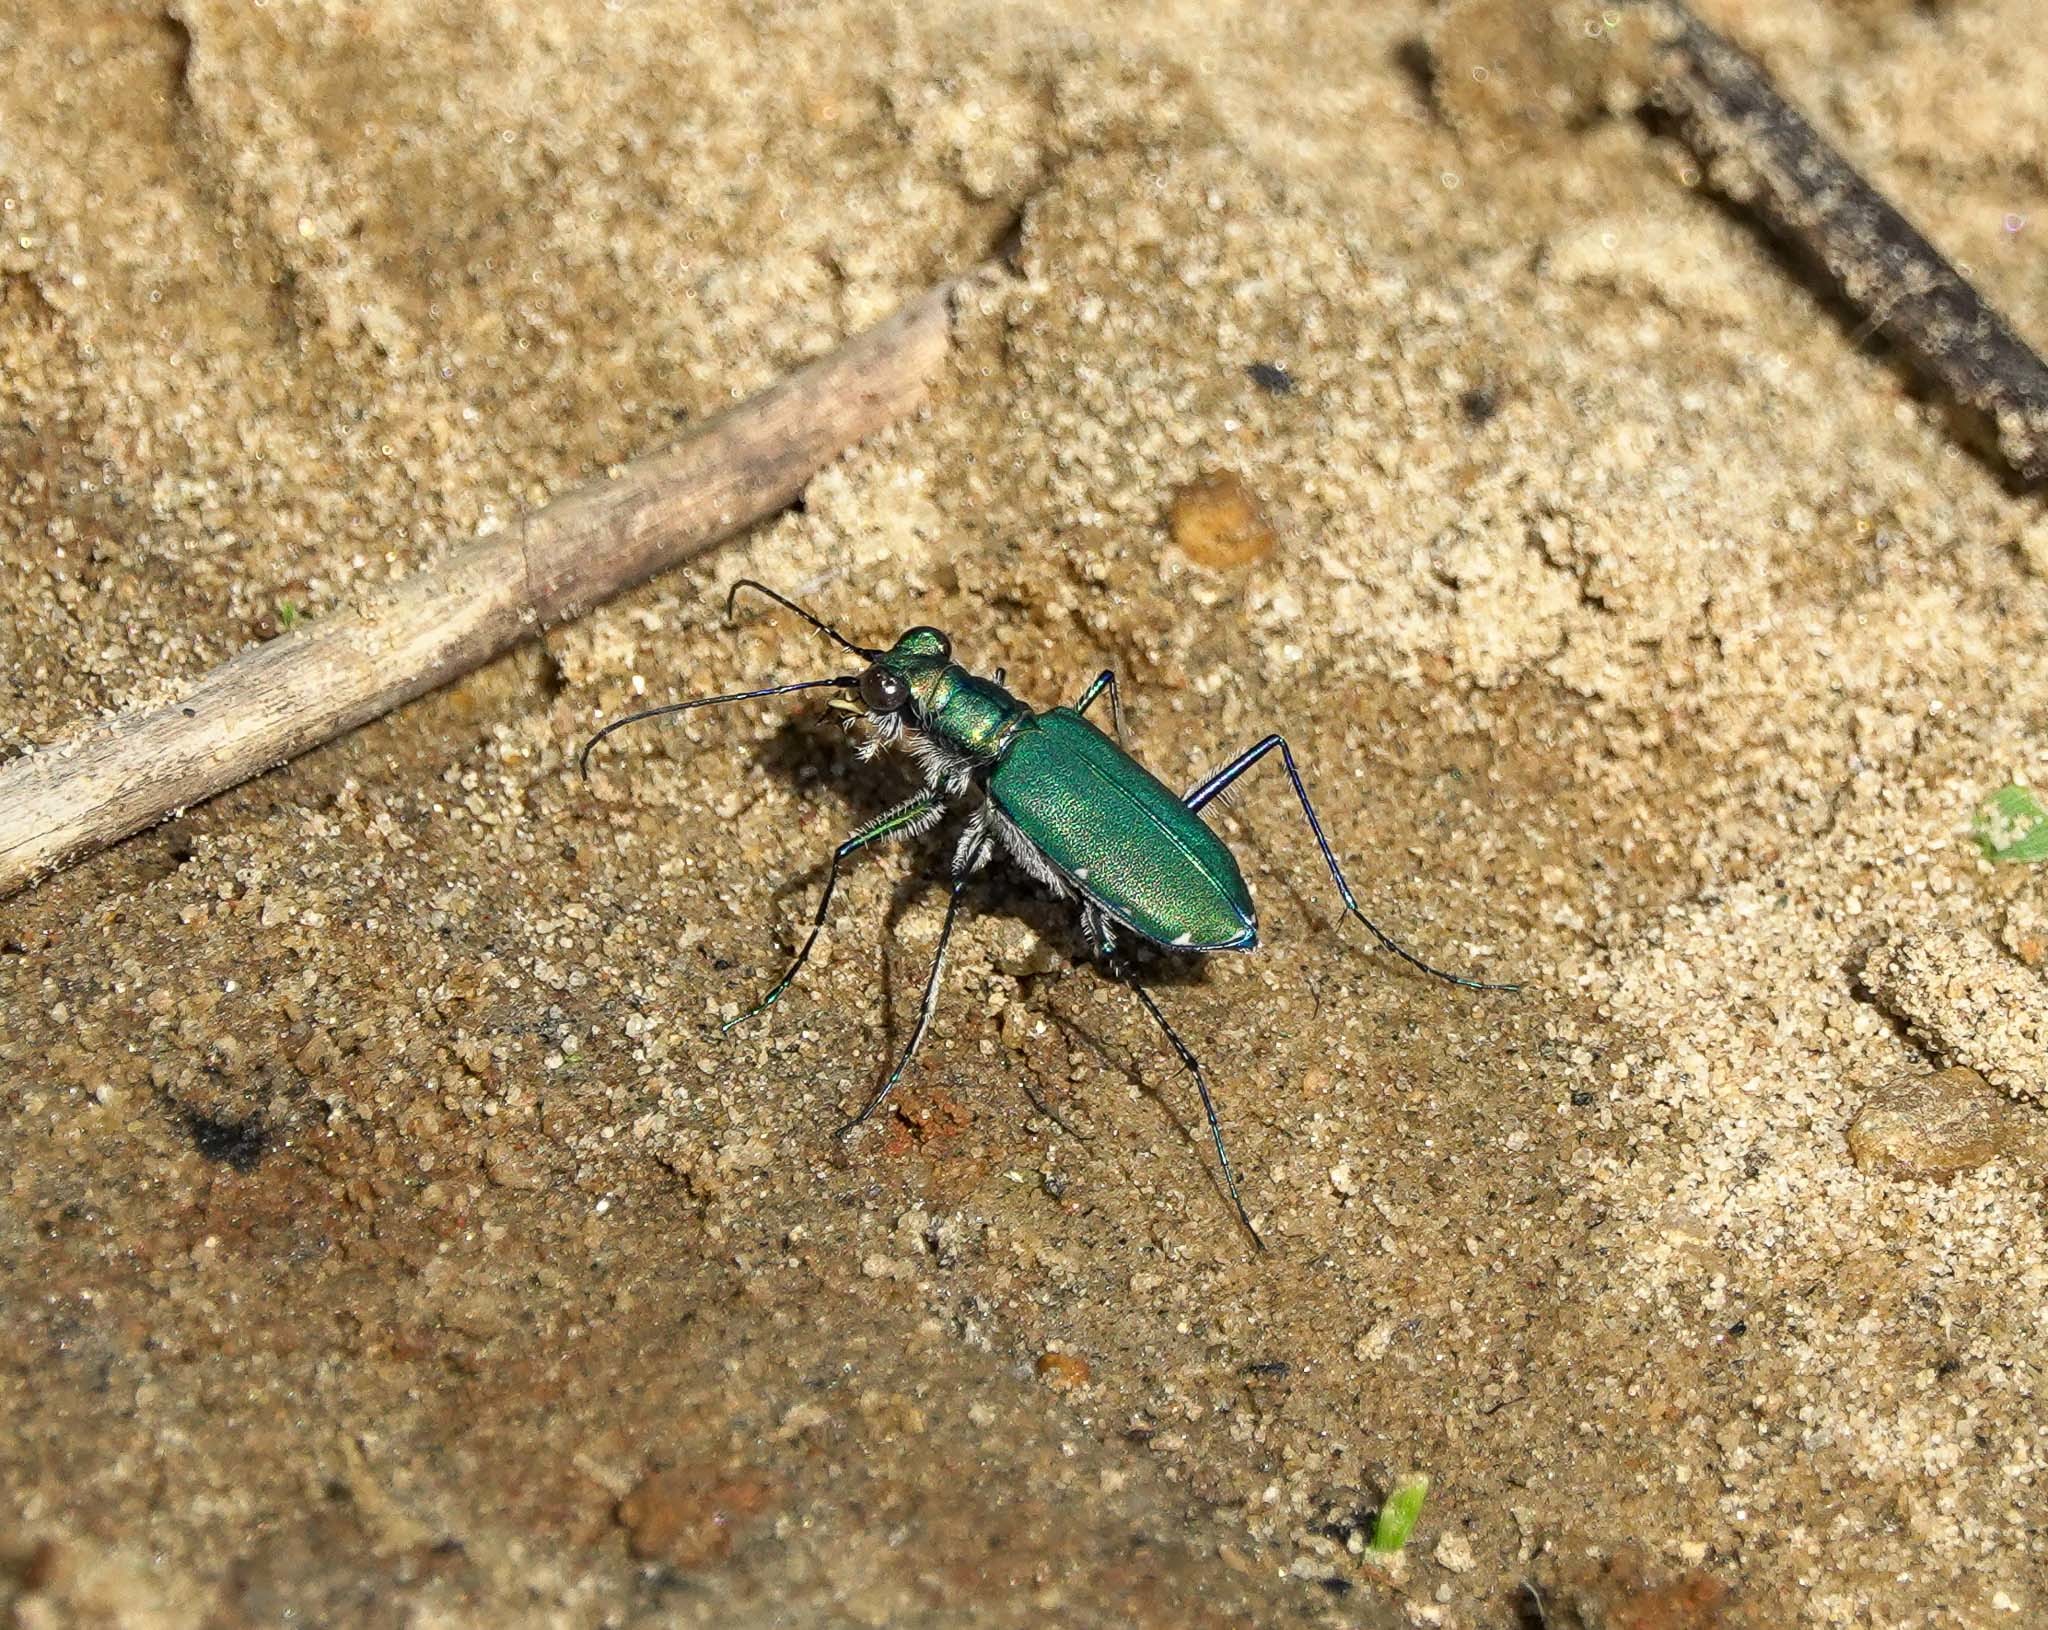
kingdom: Animalia
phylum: Arthropoda
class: Insecta
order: Coleoptera
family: Carabidae
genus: Cicindela
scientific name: Cicindela funerea
